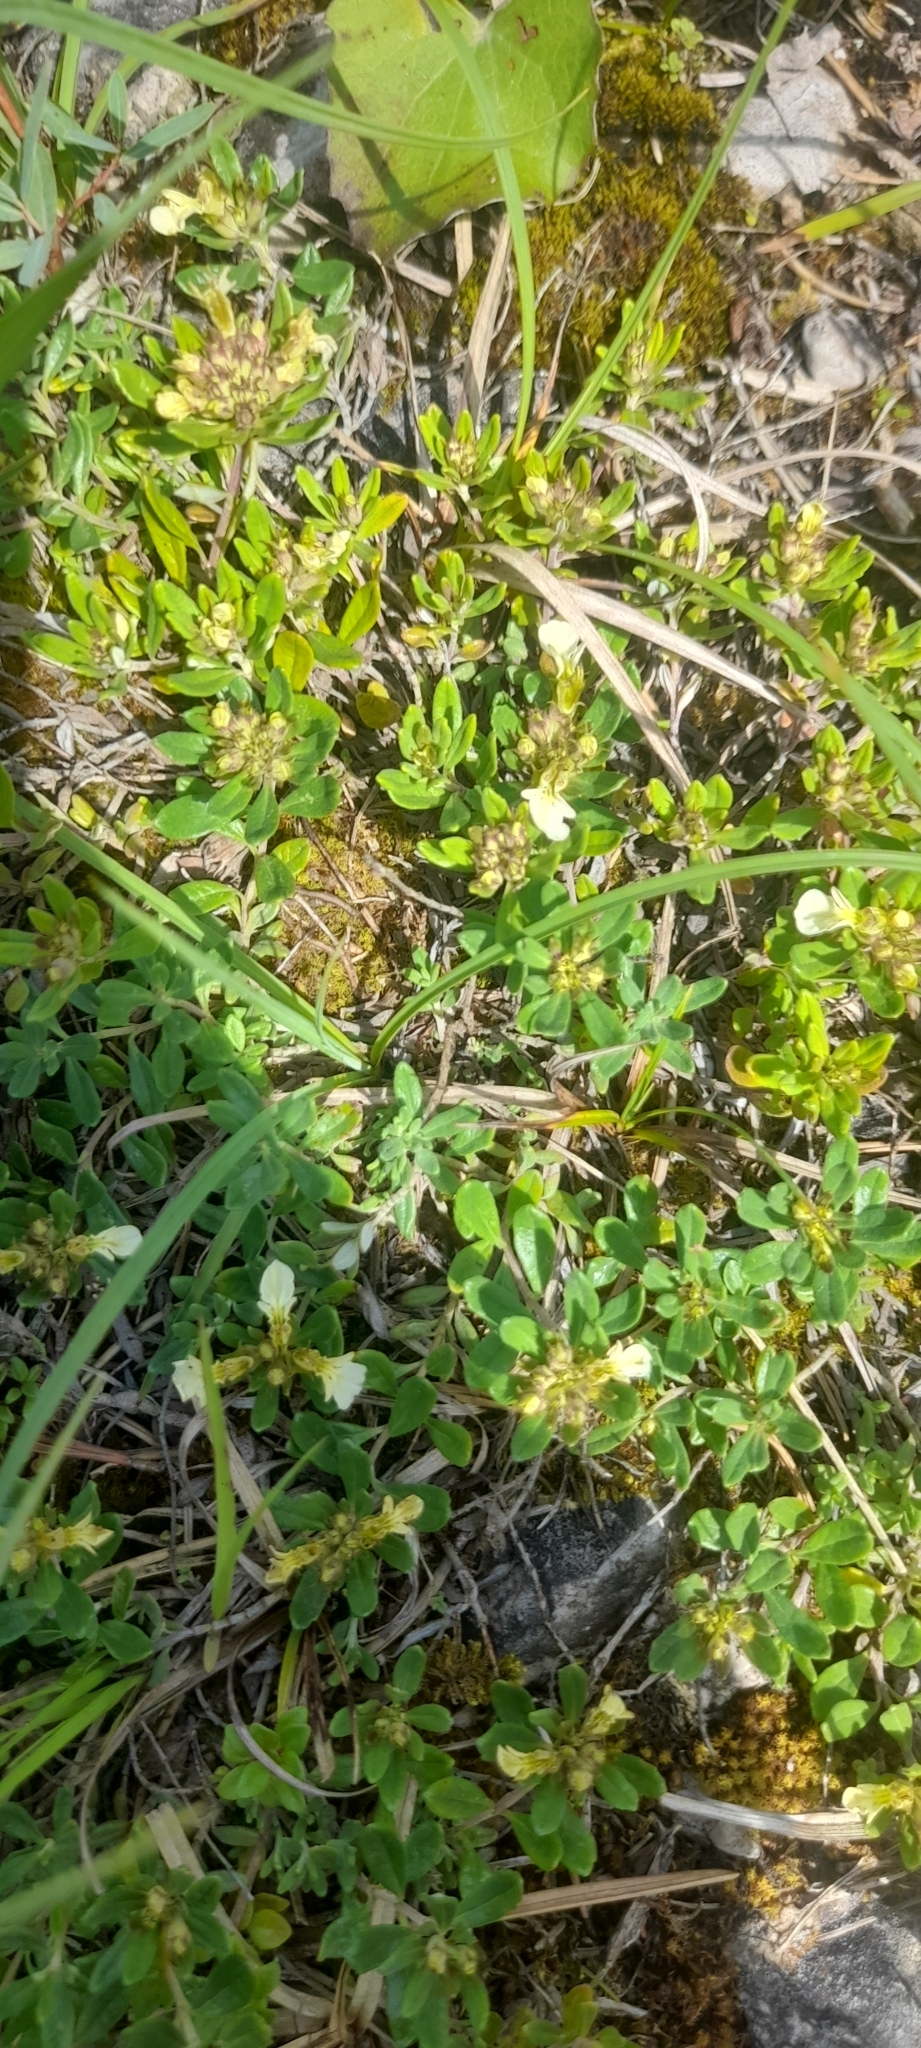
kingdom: Plantae
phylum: Tracheophyta
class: Magnoliopsida
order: Lamiales
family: Lamiaceae
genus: Teucrium
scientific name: Teucrium montanum
